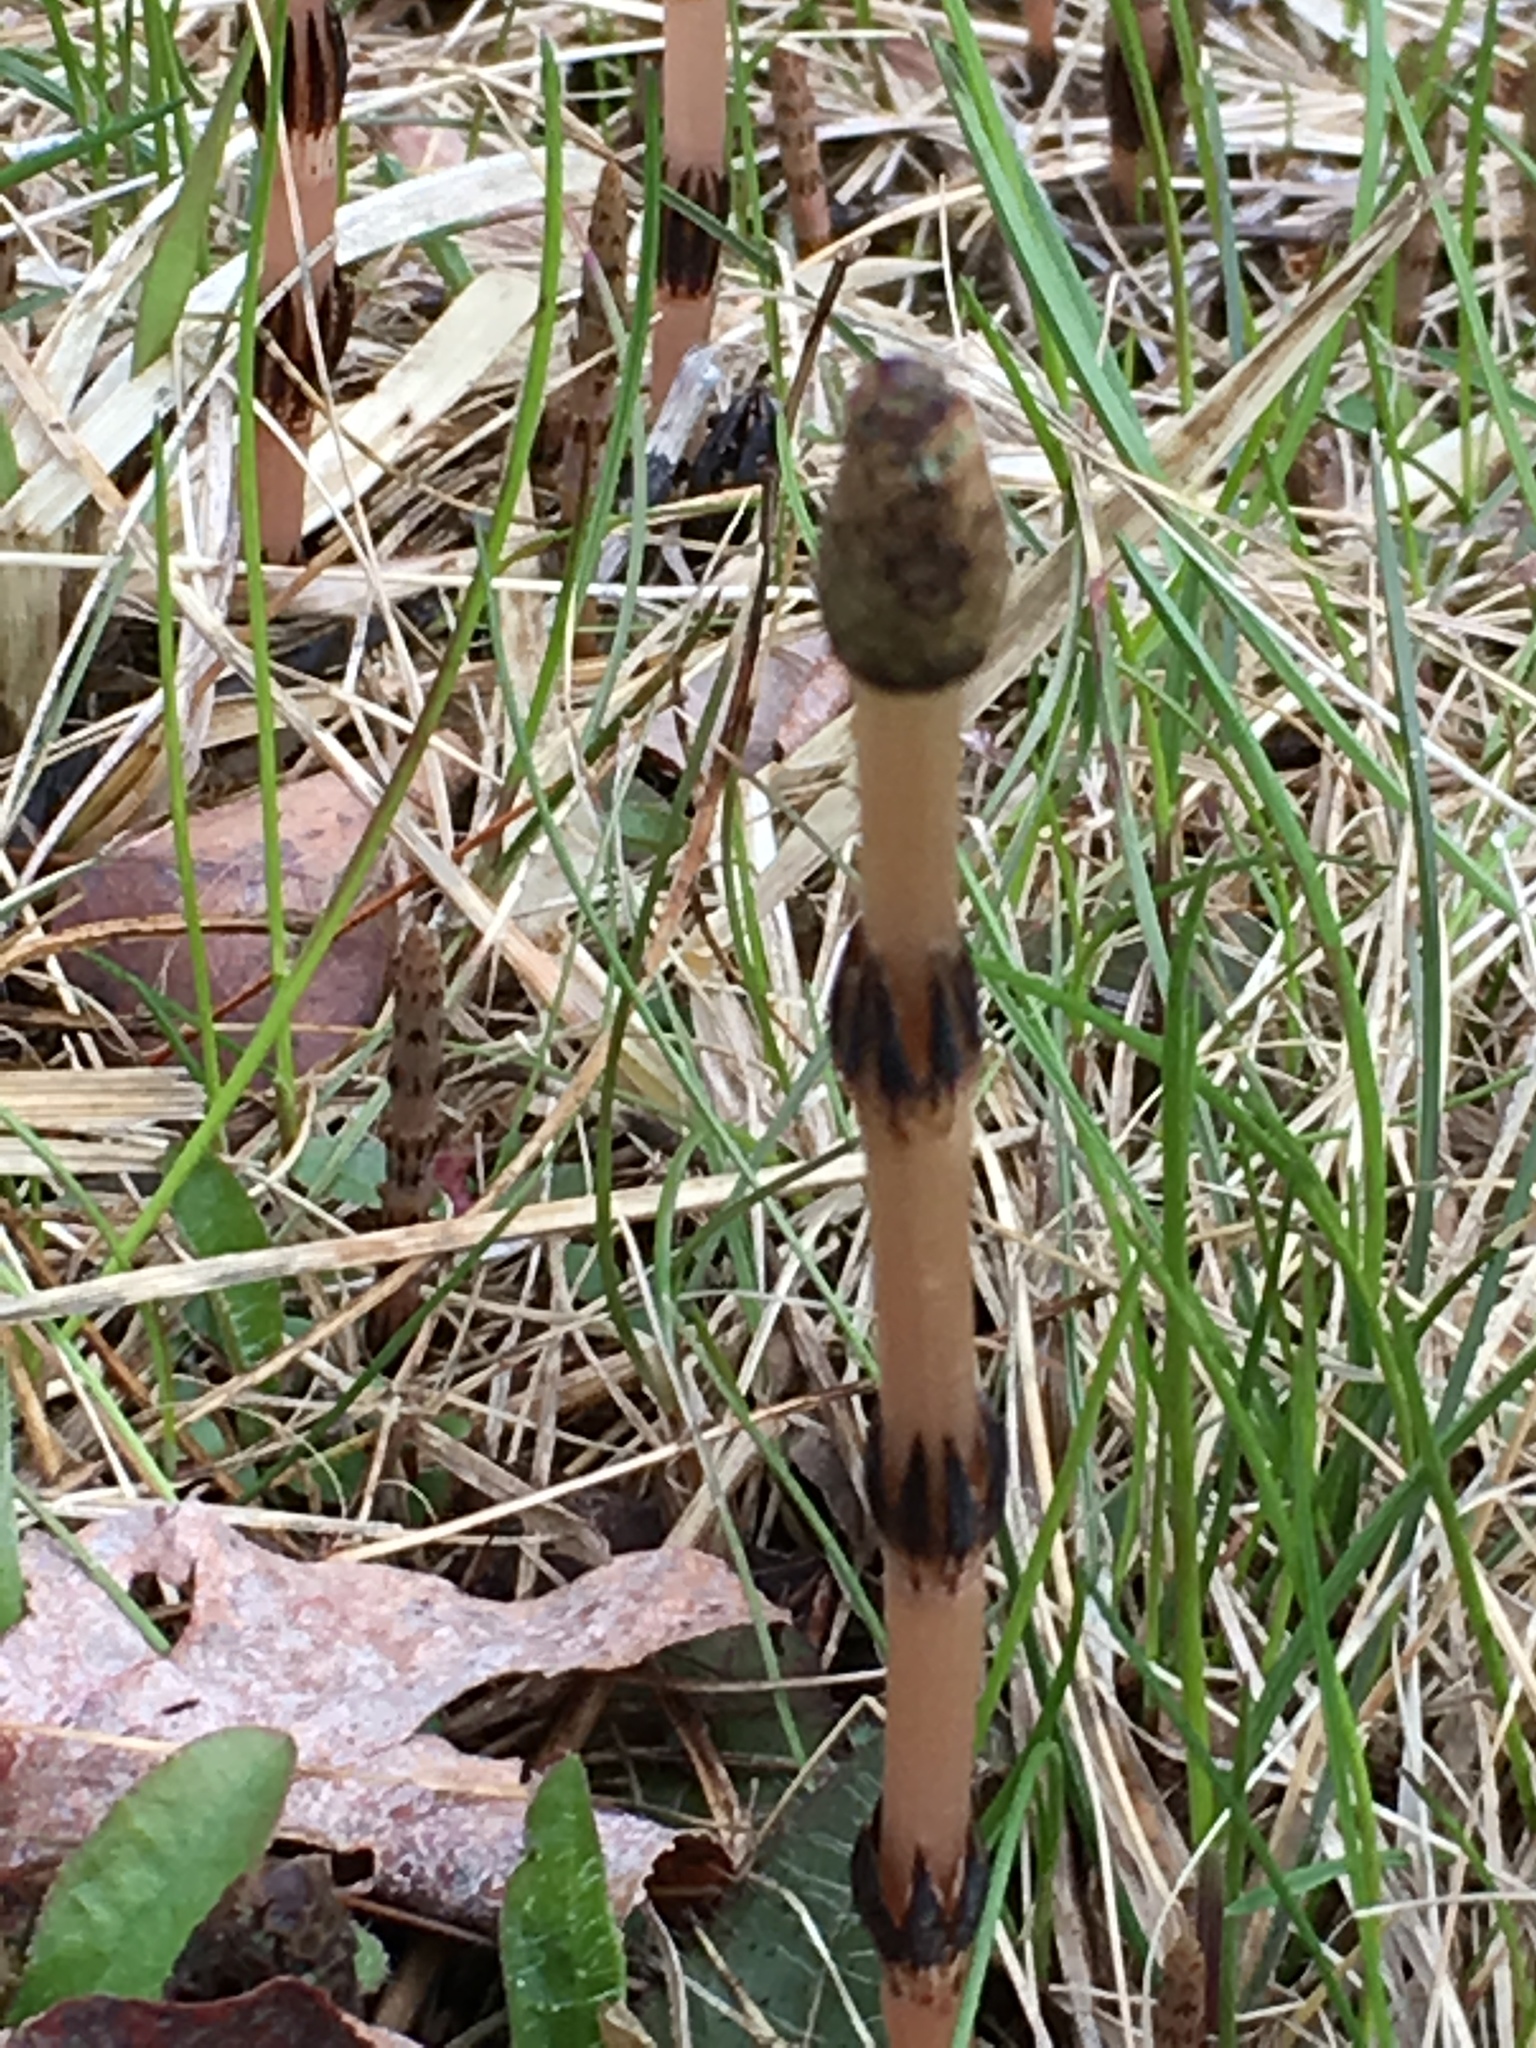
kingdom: Plantae
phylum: Tracheophyta
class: Polypodiopsida
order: Equisetales
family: Equisetaceae
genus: Equisetum
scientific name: Equisetum arvense
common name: Field horsetail
